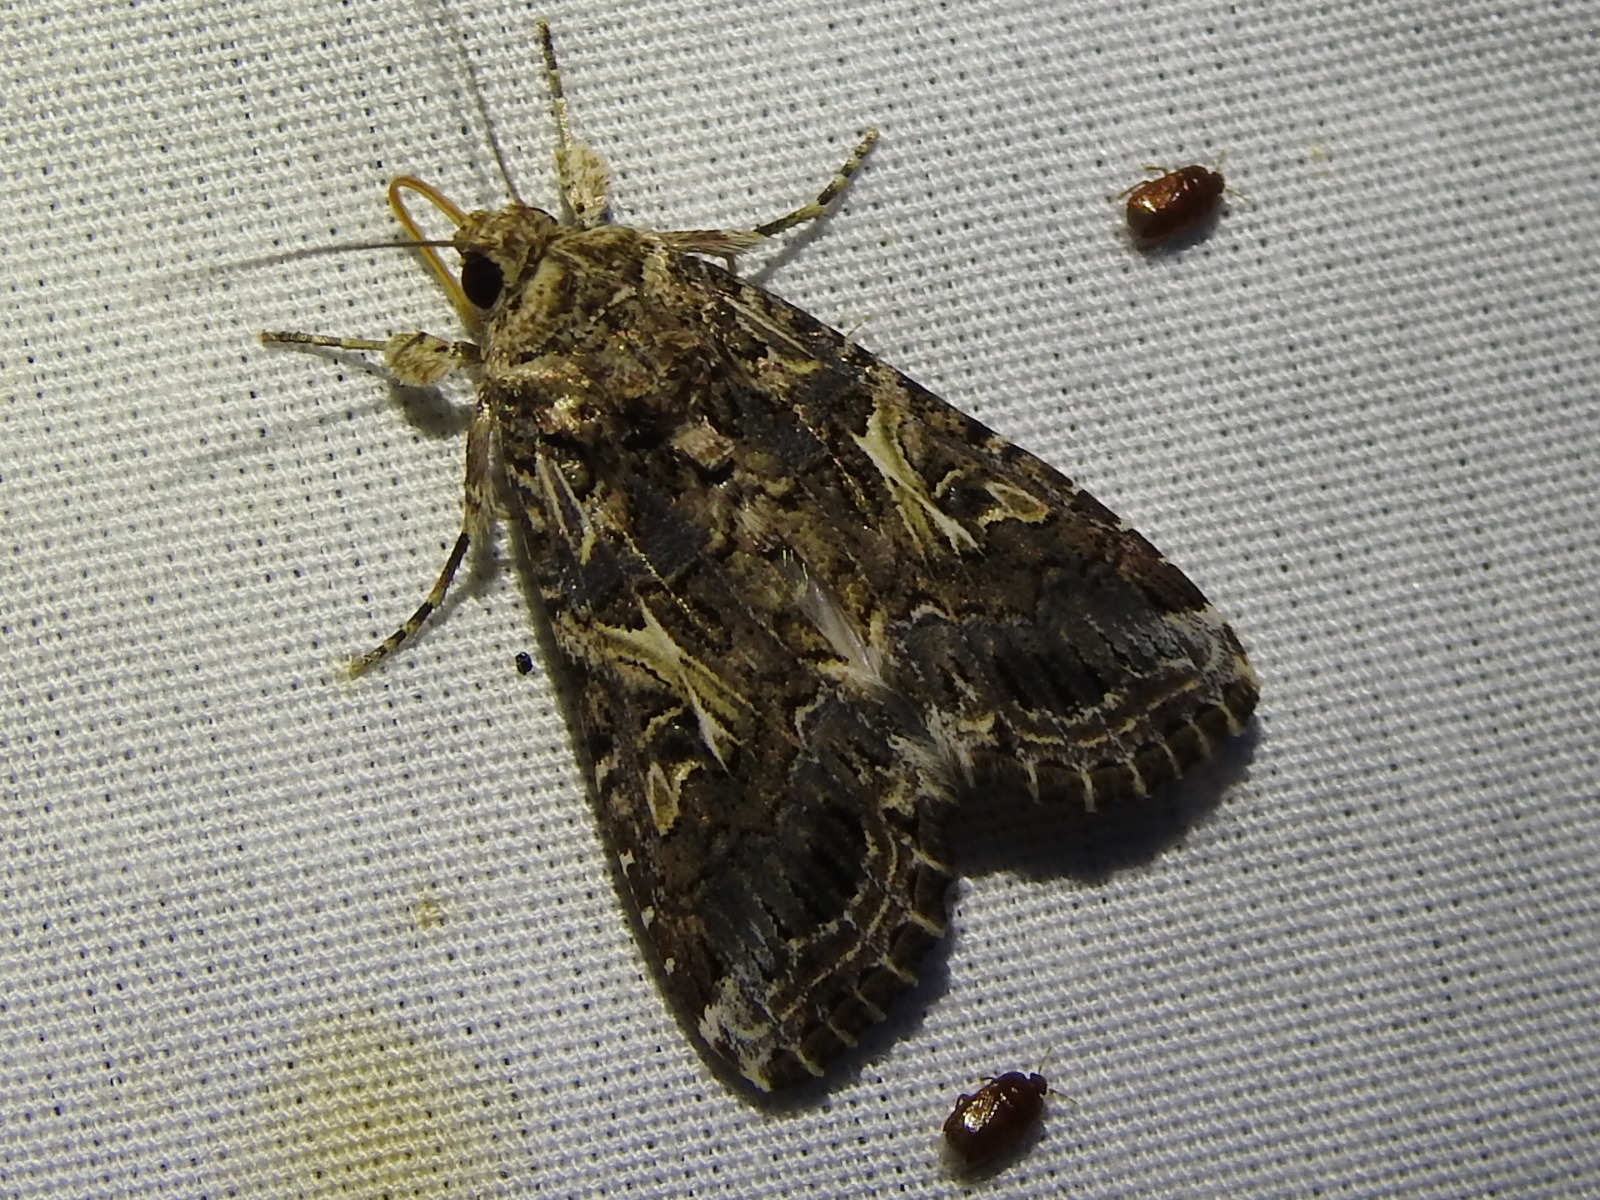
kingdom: Animalia
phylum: Arthropoda
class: Insecta
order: Lepidoptera
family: Noctuidae
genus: Spodoptera
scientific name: Spodoptera ornithogalli
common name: Yellow-striped armyworm
